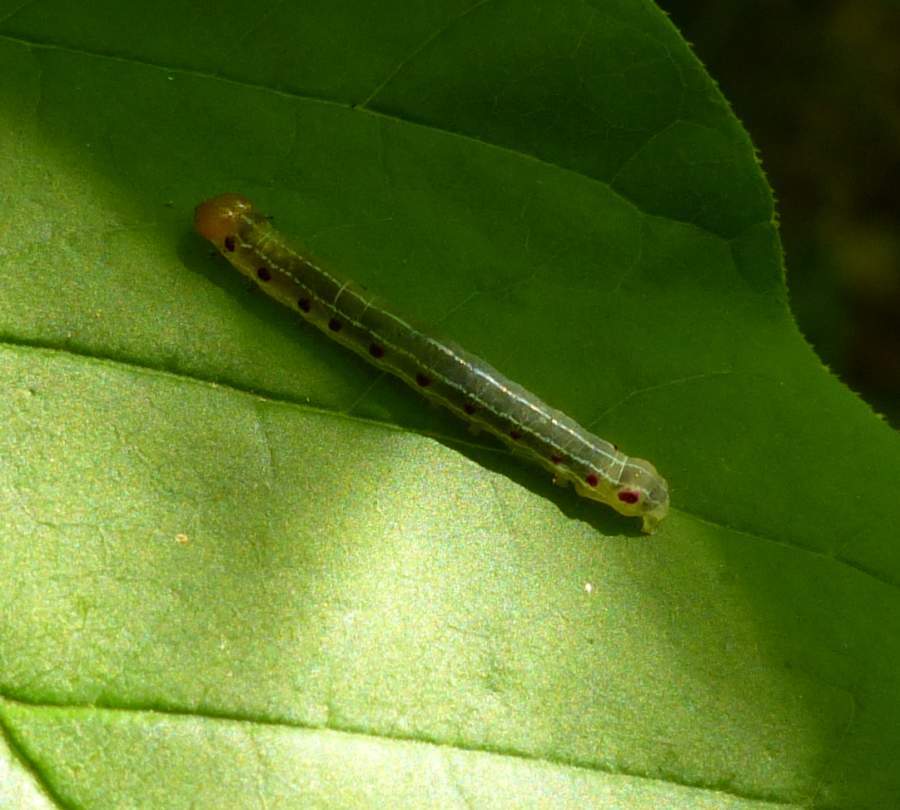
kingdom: Animalia
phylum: Arthropoda
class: Insecta
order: Lepidoptera
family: Noctuidae
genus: Achatia
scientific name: Achatia confusa
